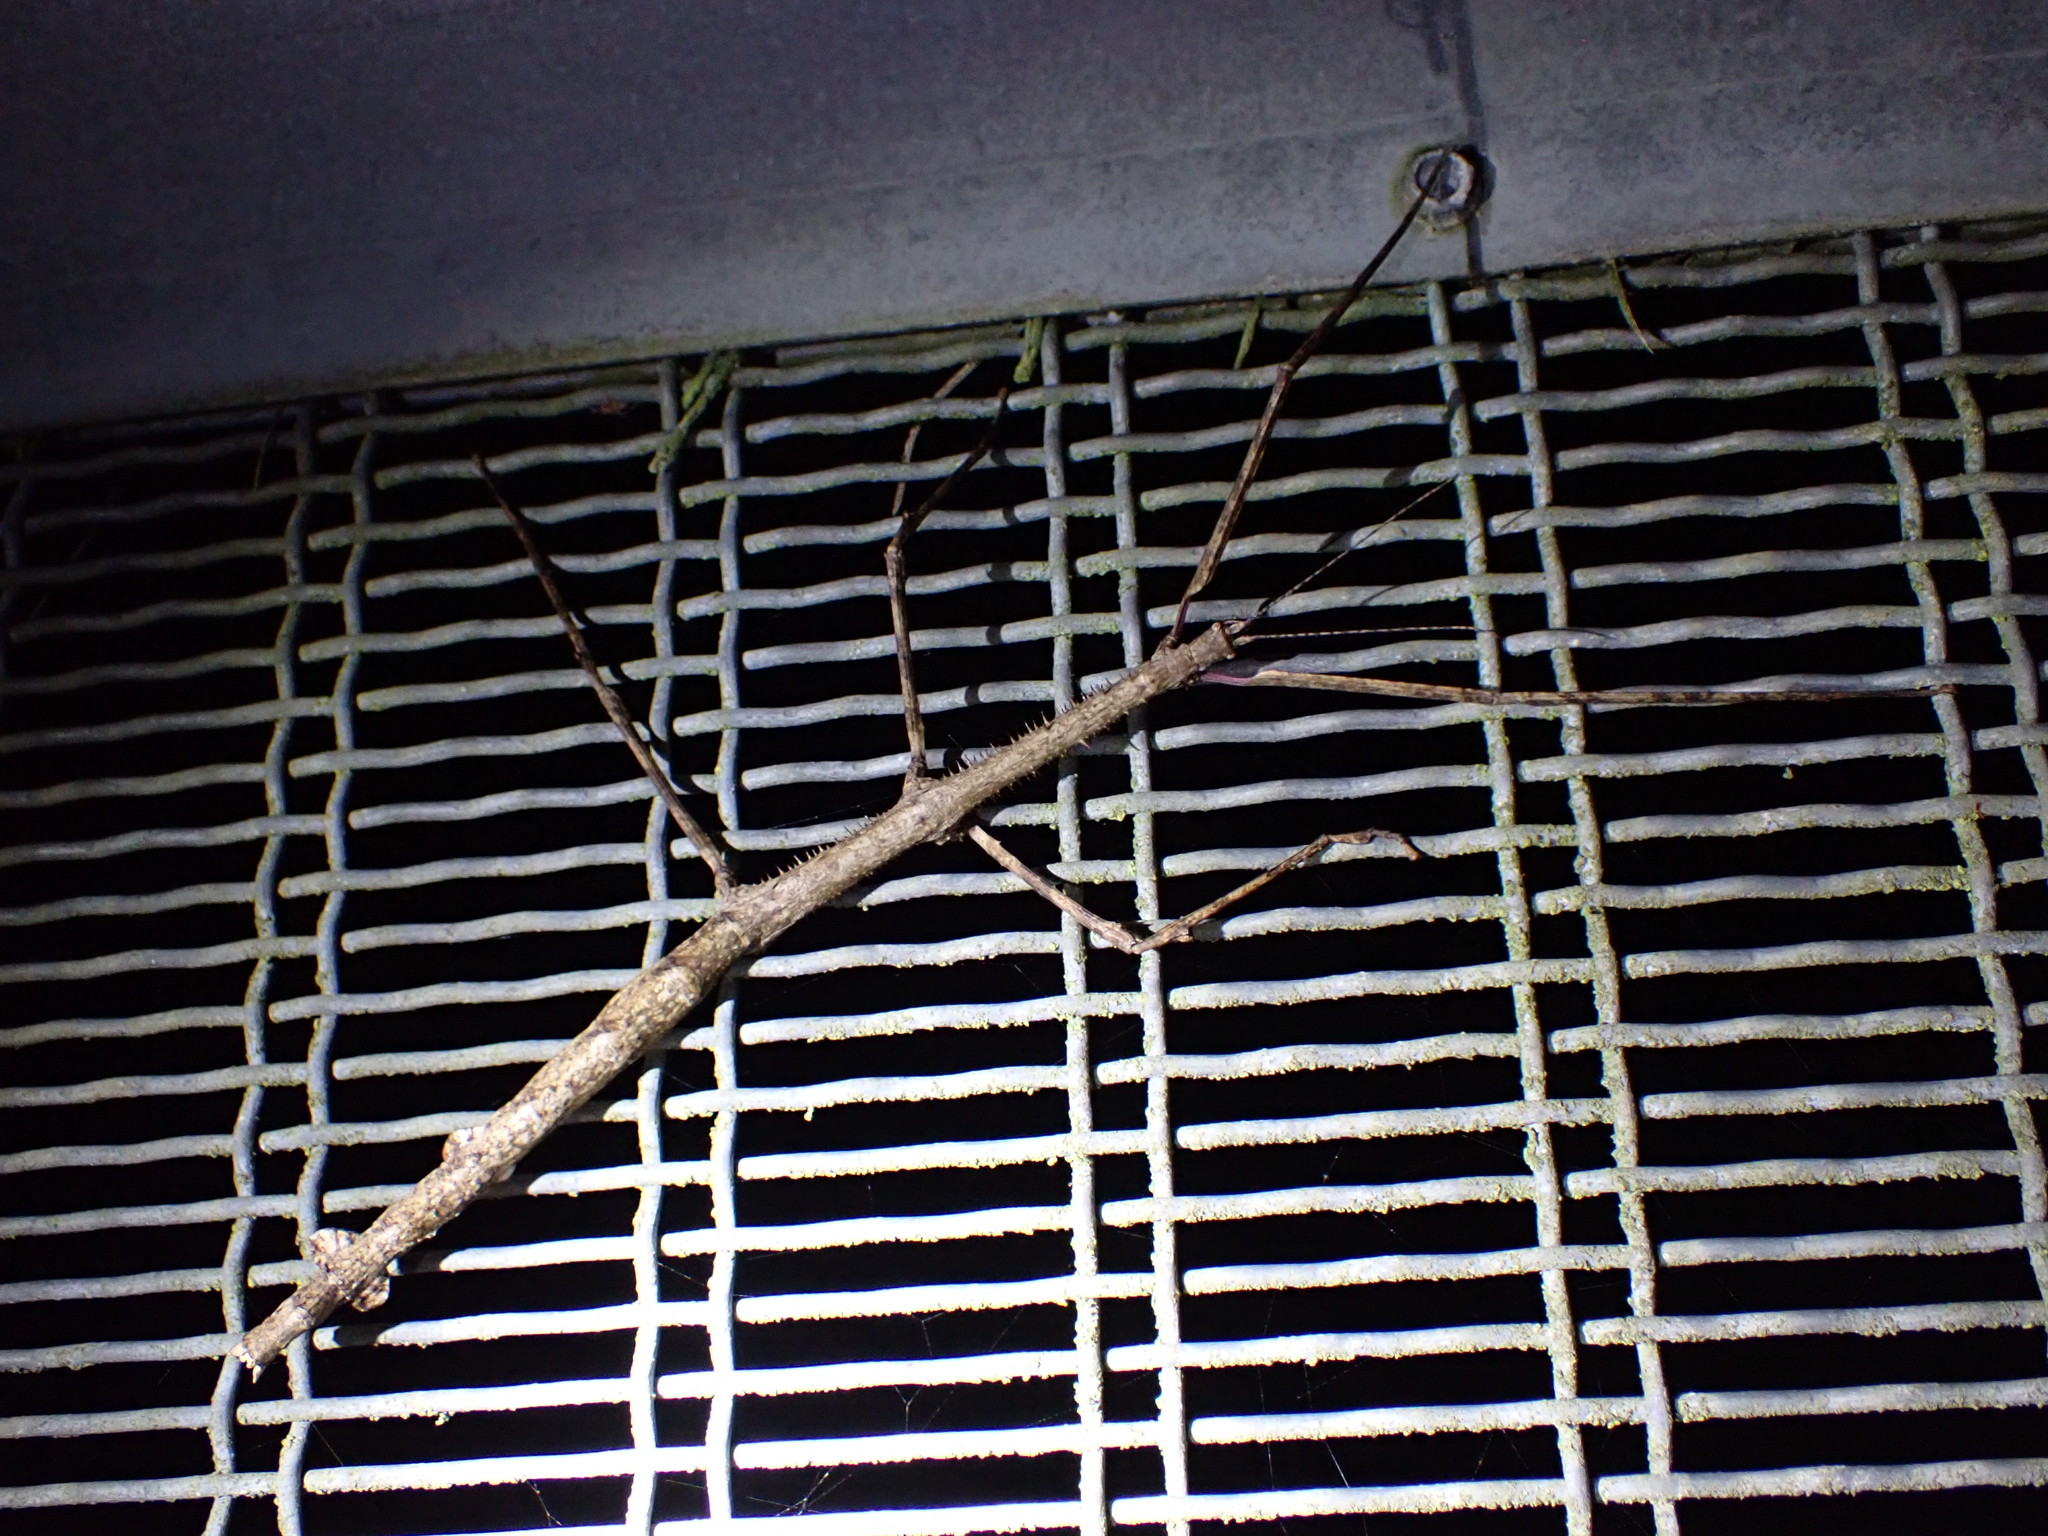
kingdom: Animalia
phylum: Arthropoda
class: Insecta
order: Phasmida
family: Phasmatidae
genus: Argosarchus
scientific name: Argosarchus horridus
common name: Bristly stick insect
